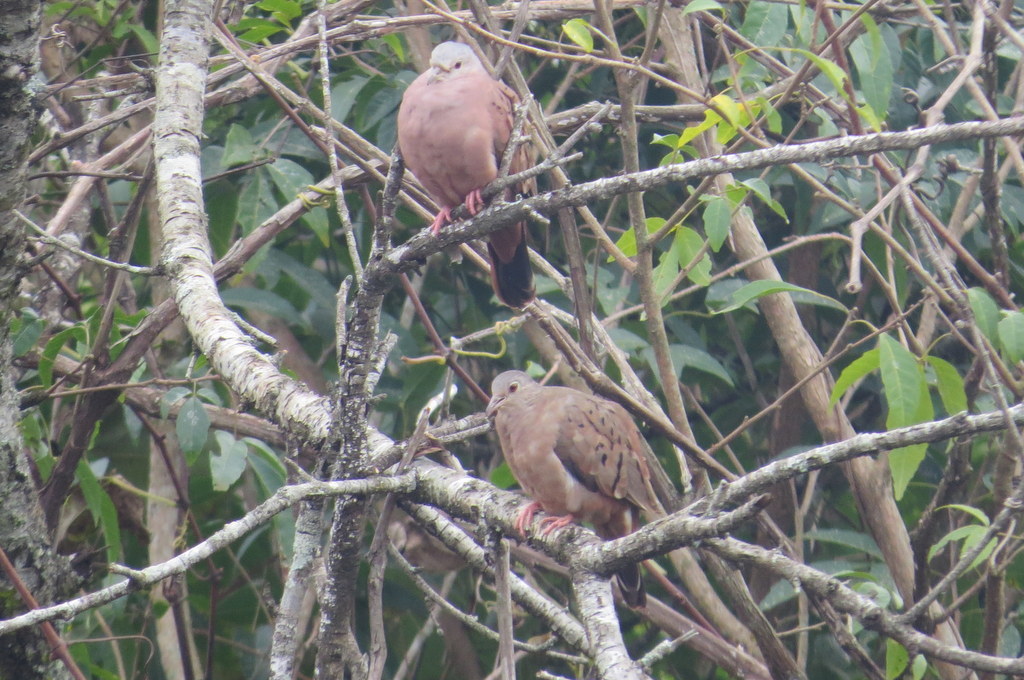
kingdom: Animalia
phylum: Chordata
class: Aves
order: Columbiformes
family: Columbidae
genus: Columbina
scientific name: Columbina talpacoti
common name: Ruddy ground dove
